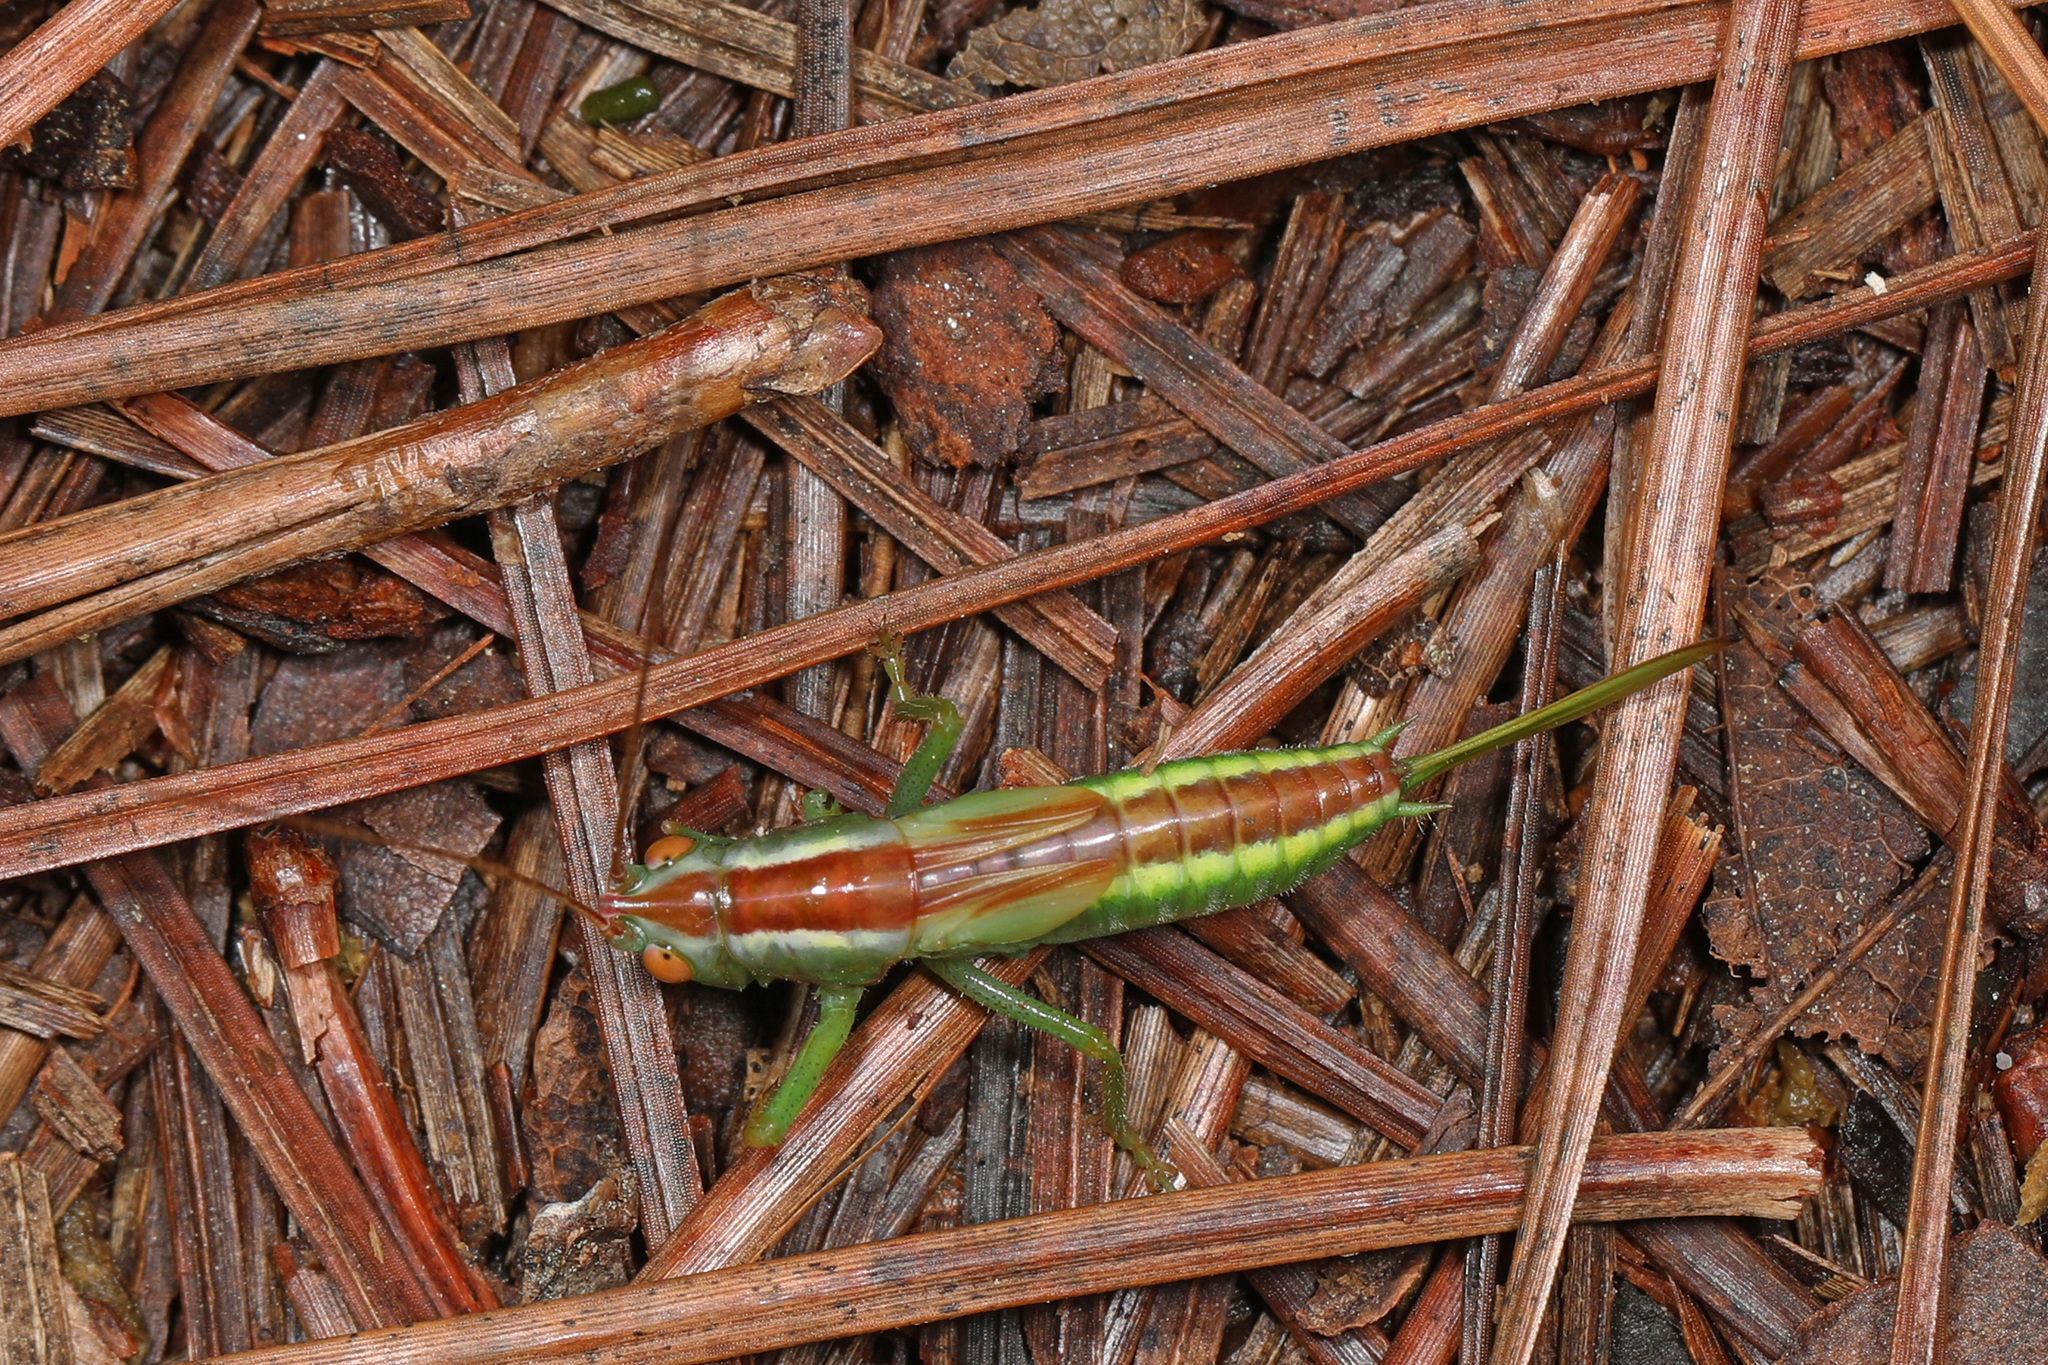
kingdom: Animalia
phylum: Arthropoda
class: Insecta
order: Orthoptera
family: Tettigoniidae
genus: Orchelimum
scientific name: Orchelimum minor
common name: Lesser pine meadow katydid
